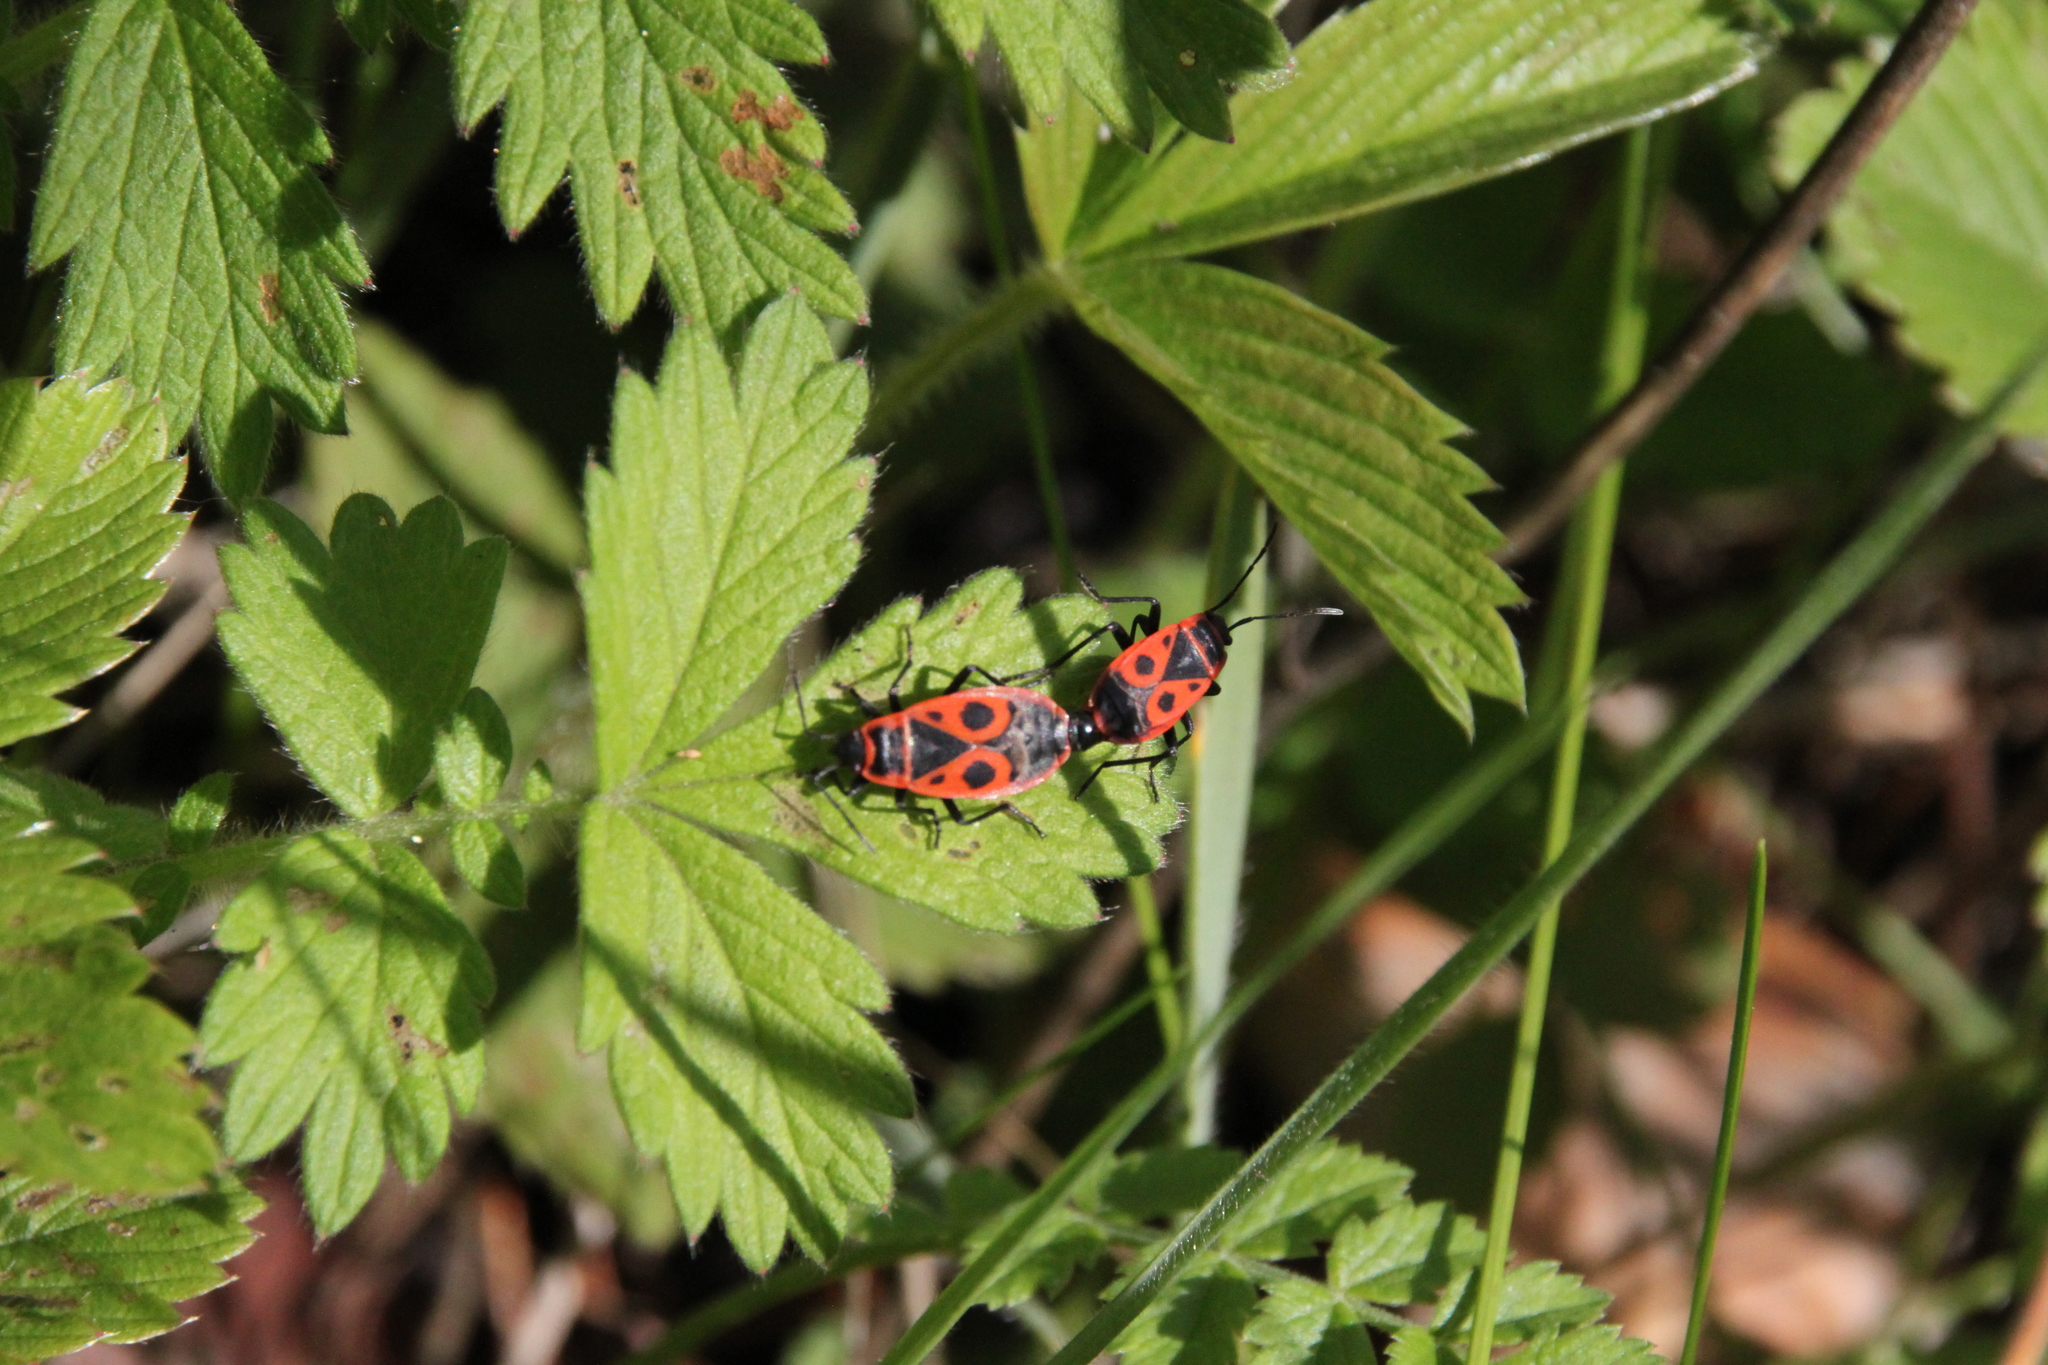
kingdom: Animalia
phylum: Arthropoda
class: Insecta
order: Hemiptera
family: Pyrrhocoridae
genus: Pyrrhocoris
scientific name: Pyrrhocoris apterus
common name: Firebug
